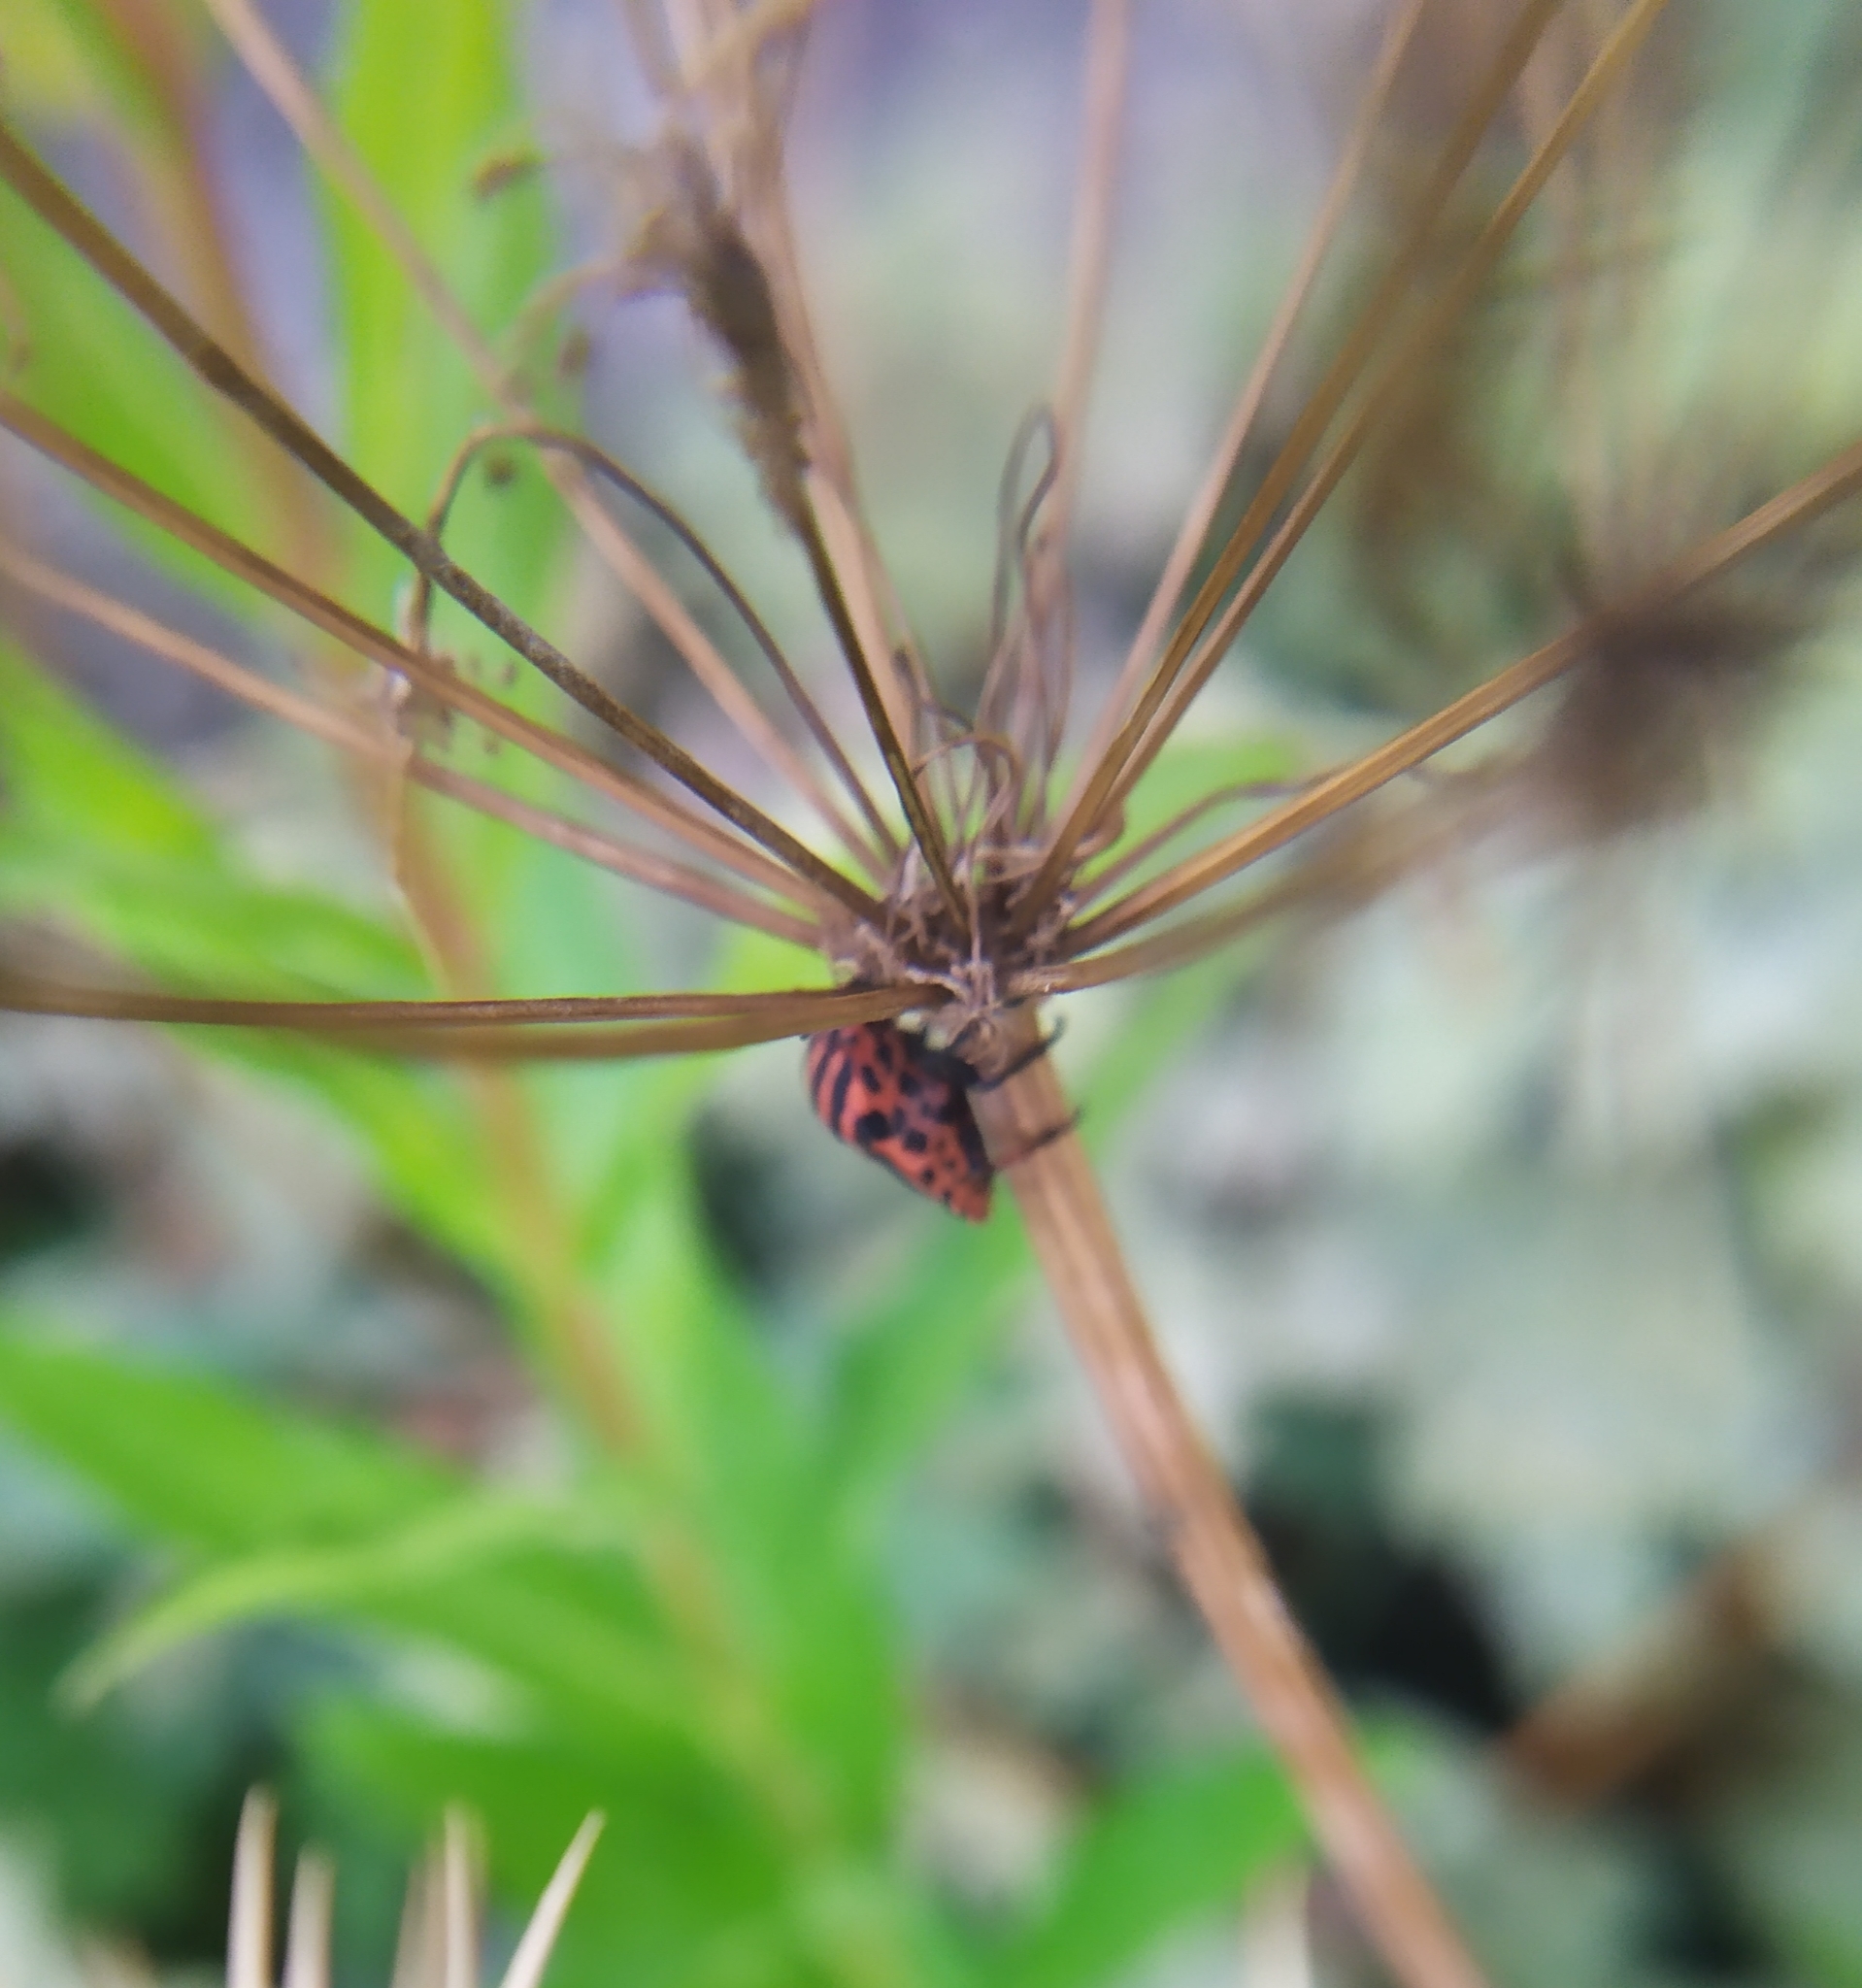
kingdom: Animalia
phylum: Arthropoda
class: Insecta
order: Hemiptera
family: Pentatomidae
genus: Graphosoma
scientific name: Graphosoma italicum
